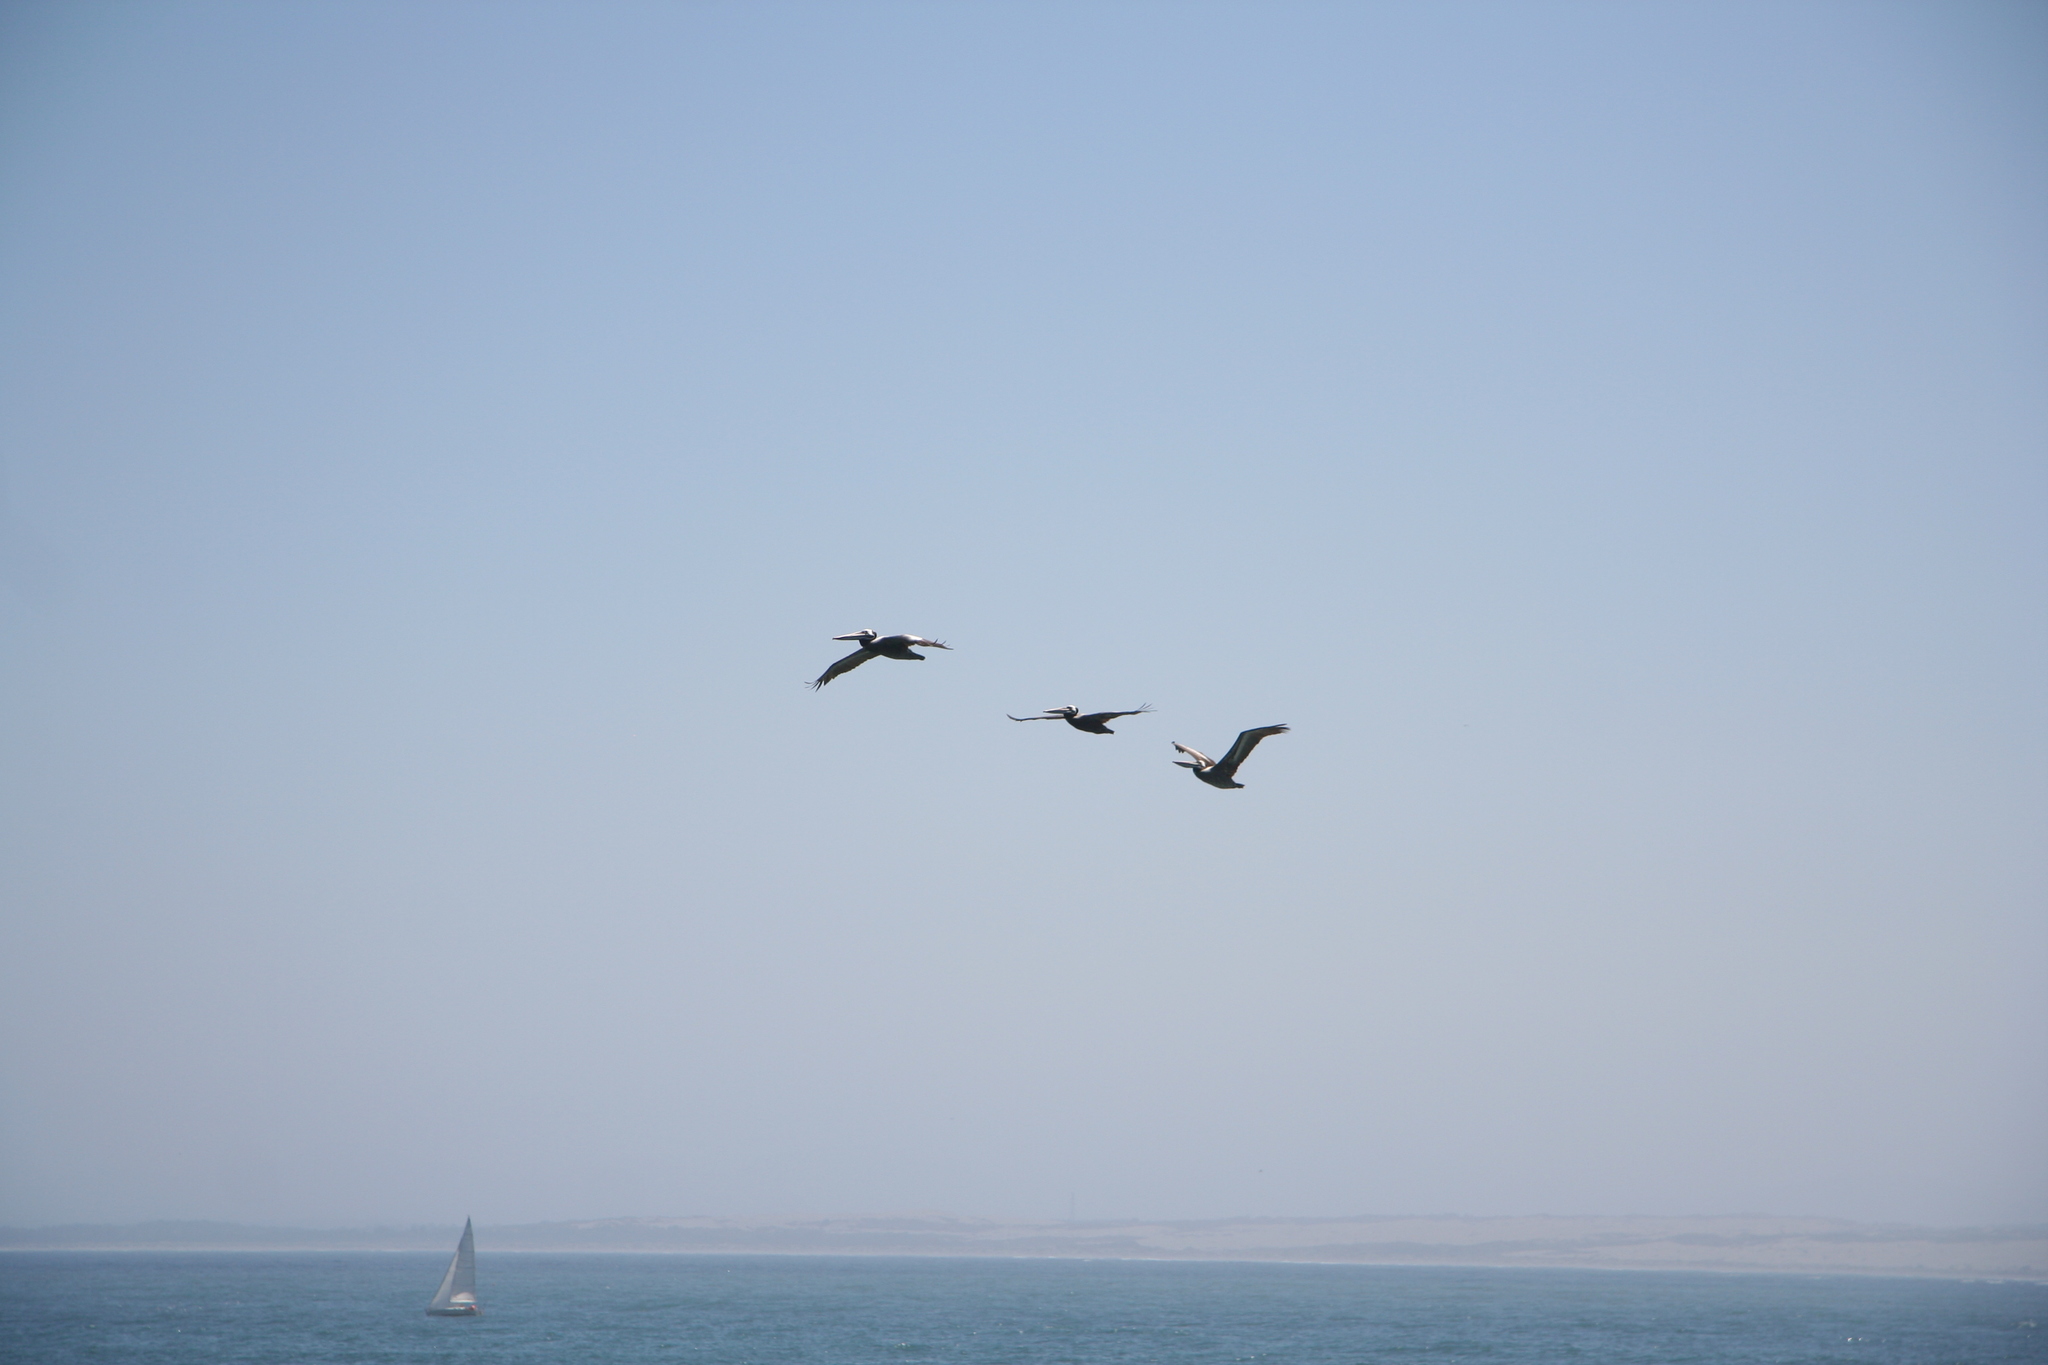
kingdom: Animalia
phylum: Chordata
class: Aves
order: Pelecaniformes
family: Pelecanidae
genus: Pelecanus
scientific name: Pelecanus thagus
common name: Peruvian pelican
